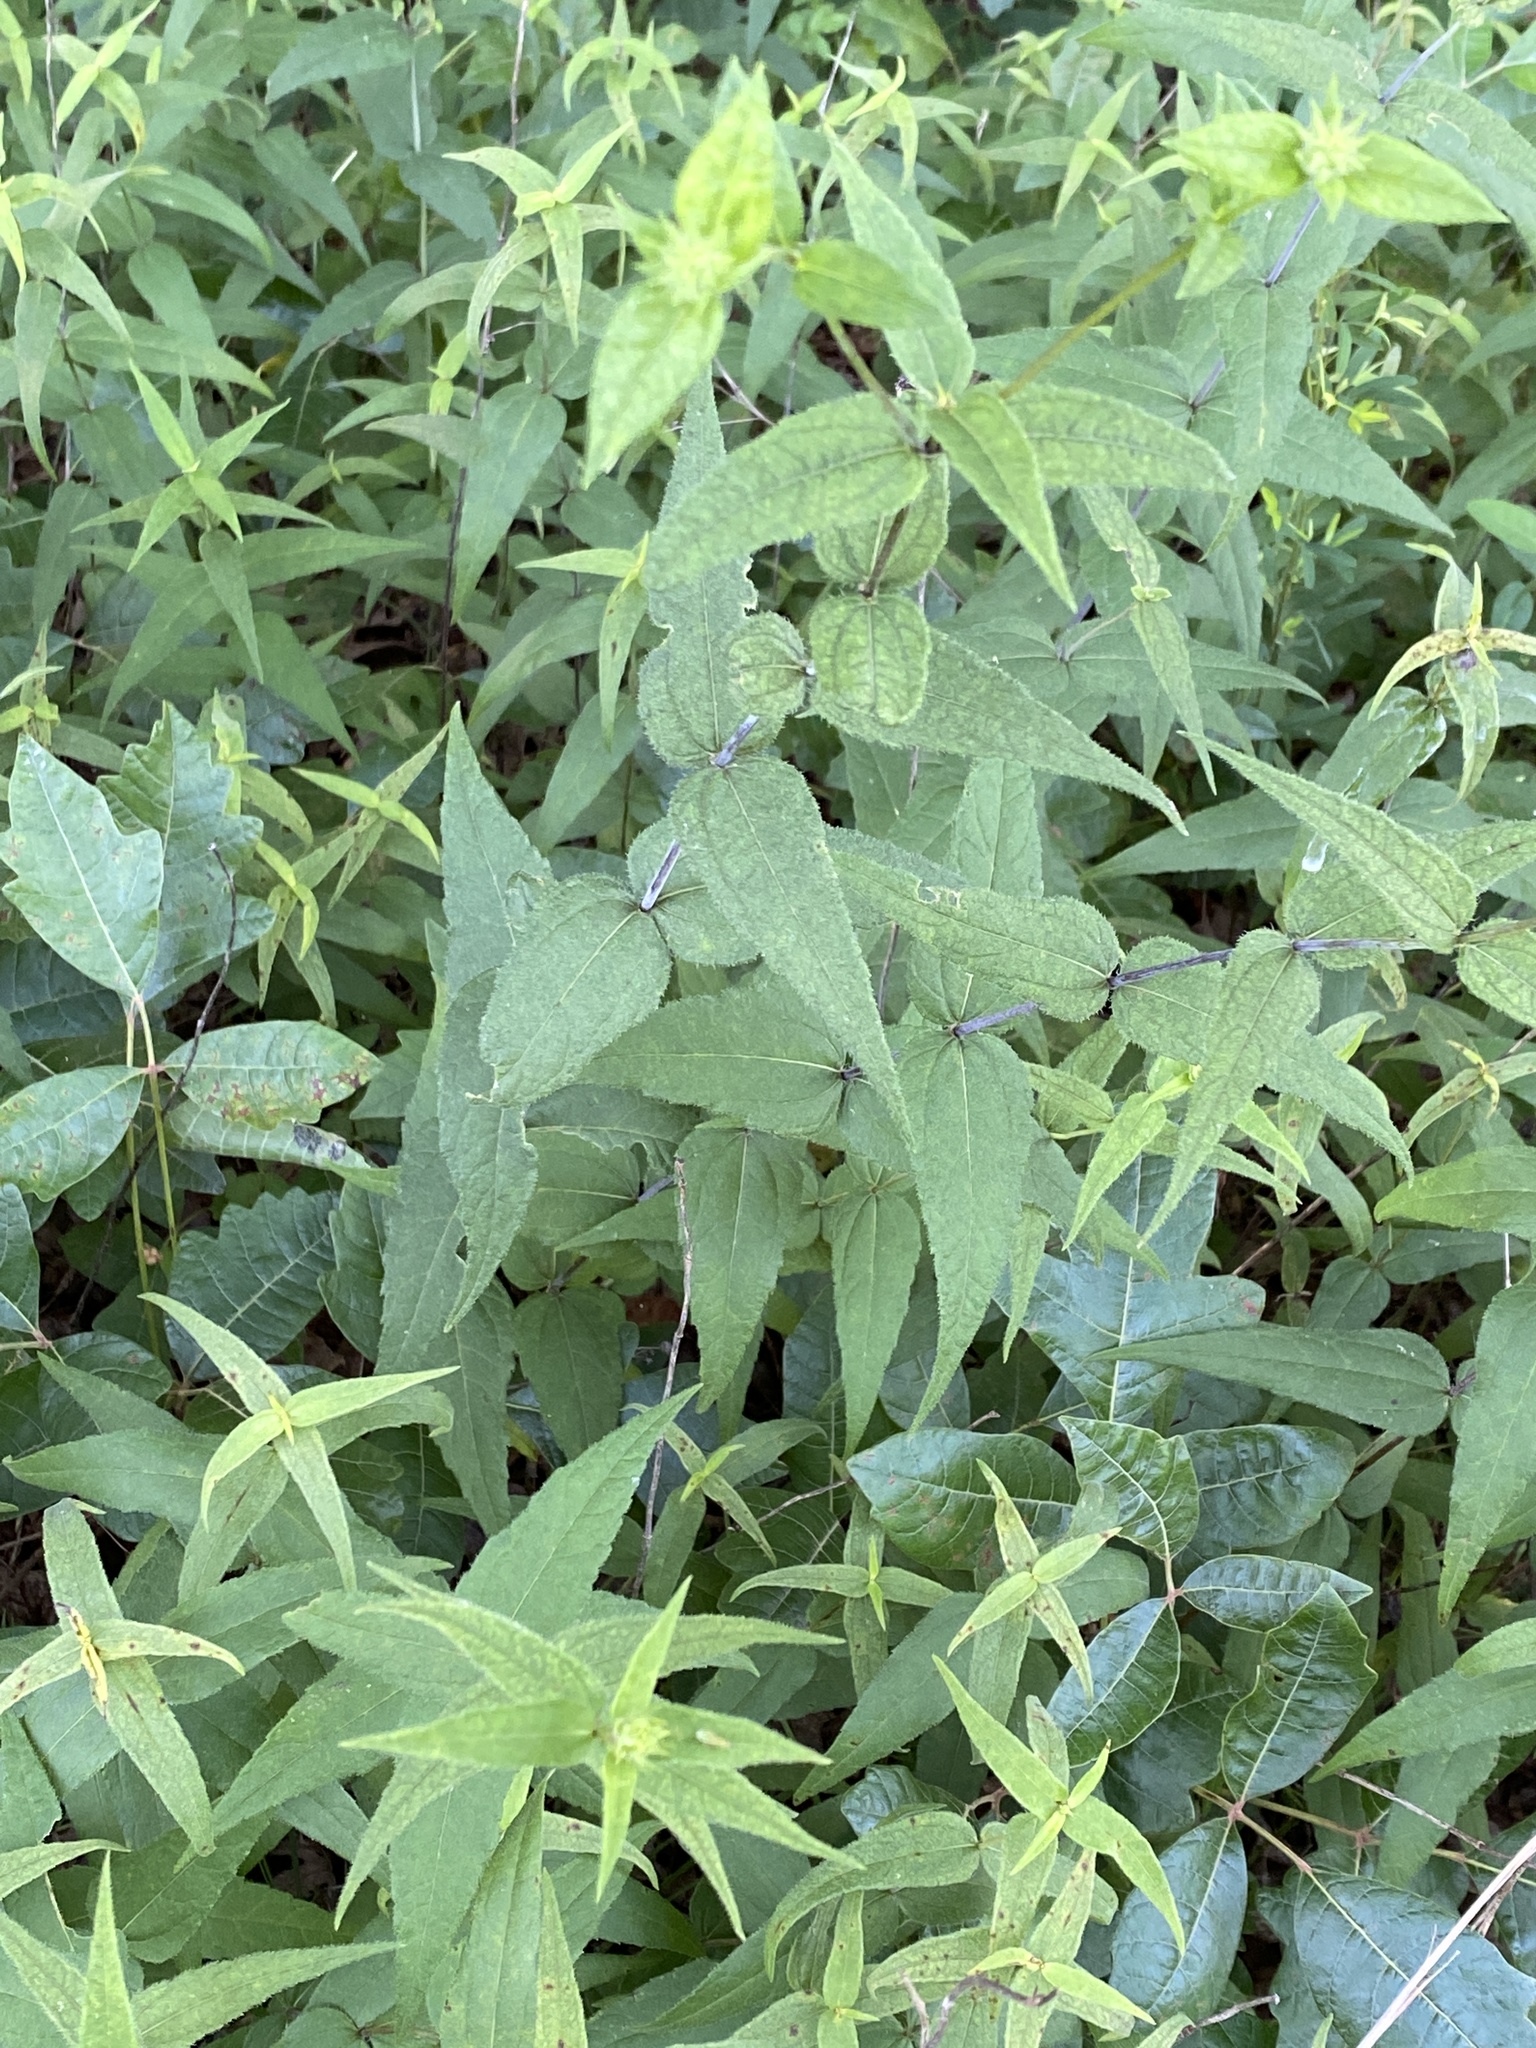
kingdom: Plantae
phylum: Tracheophyta
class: Magnoliopsida
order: Asterales
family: Asteraceae
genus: Helianthus
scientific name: Helianthus divaricatus
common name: Divergent sunflower
